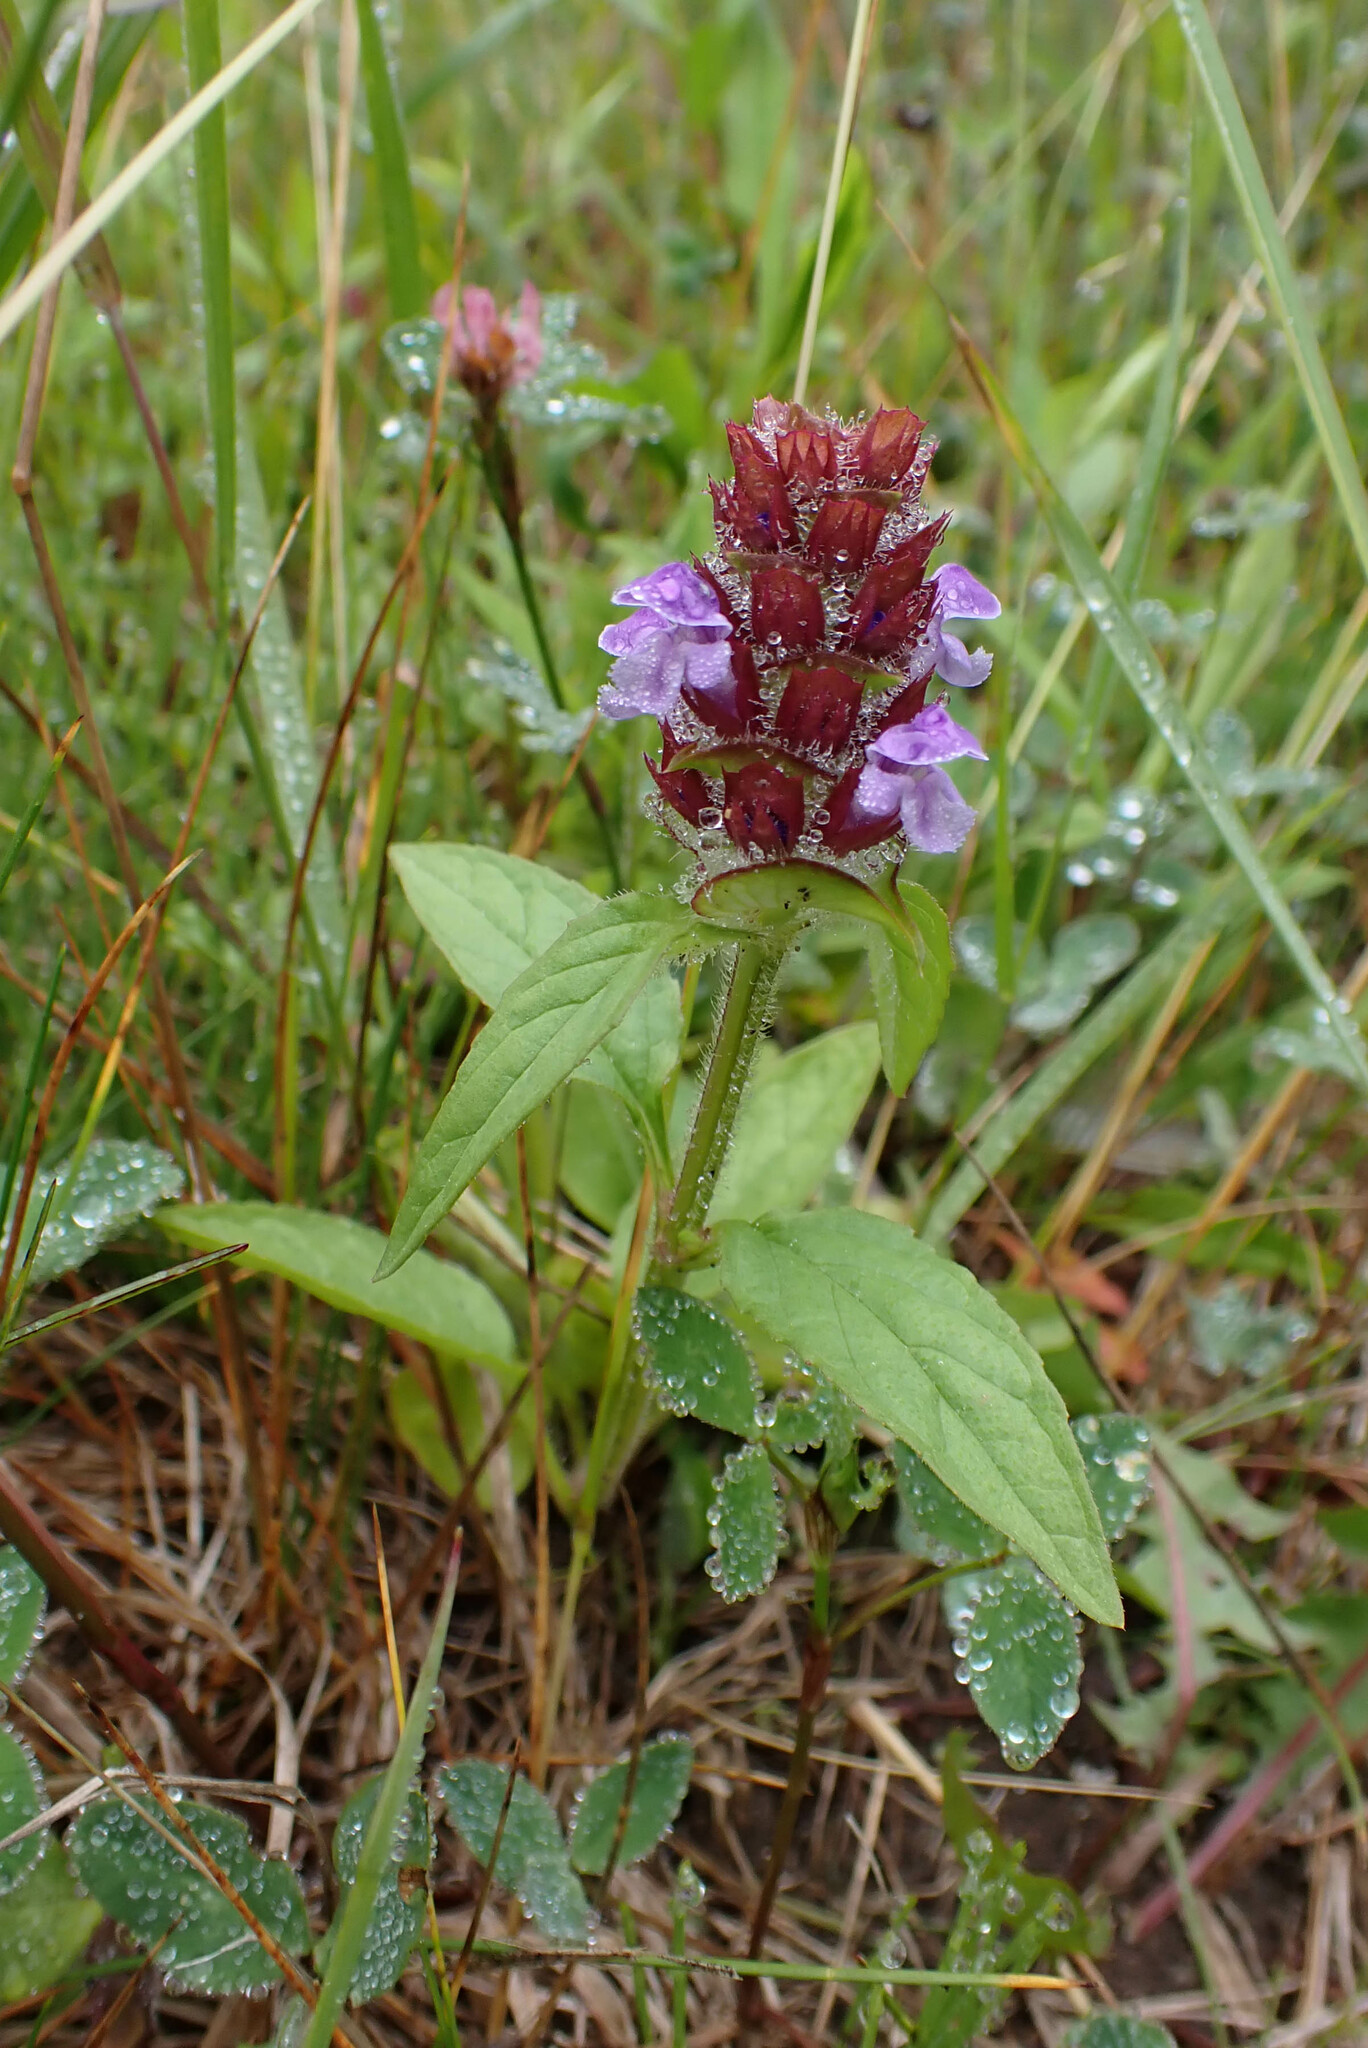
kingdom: Plantae
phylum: Tracheophyta
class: Magnoliopsida
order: Lamiales
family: Lamiaceae
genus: Prunella
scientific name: Prunella vulgaris
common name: Heal-all
